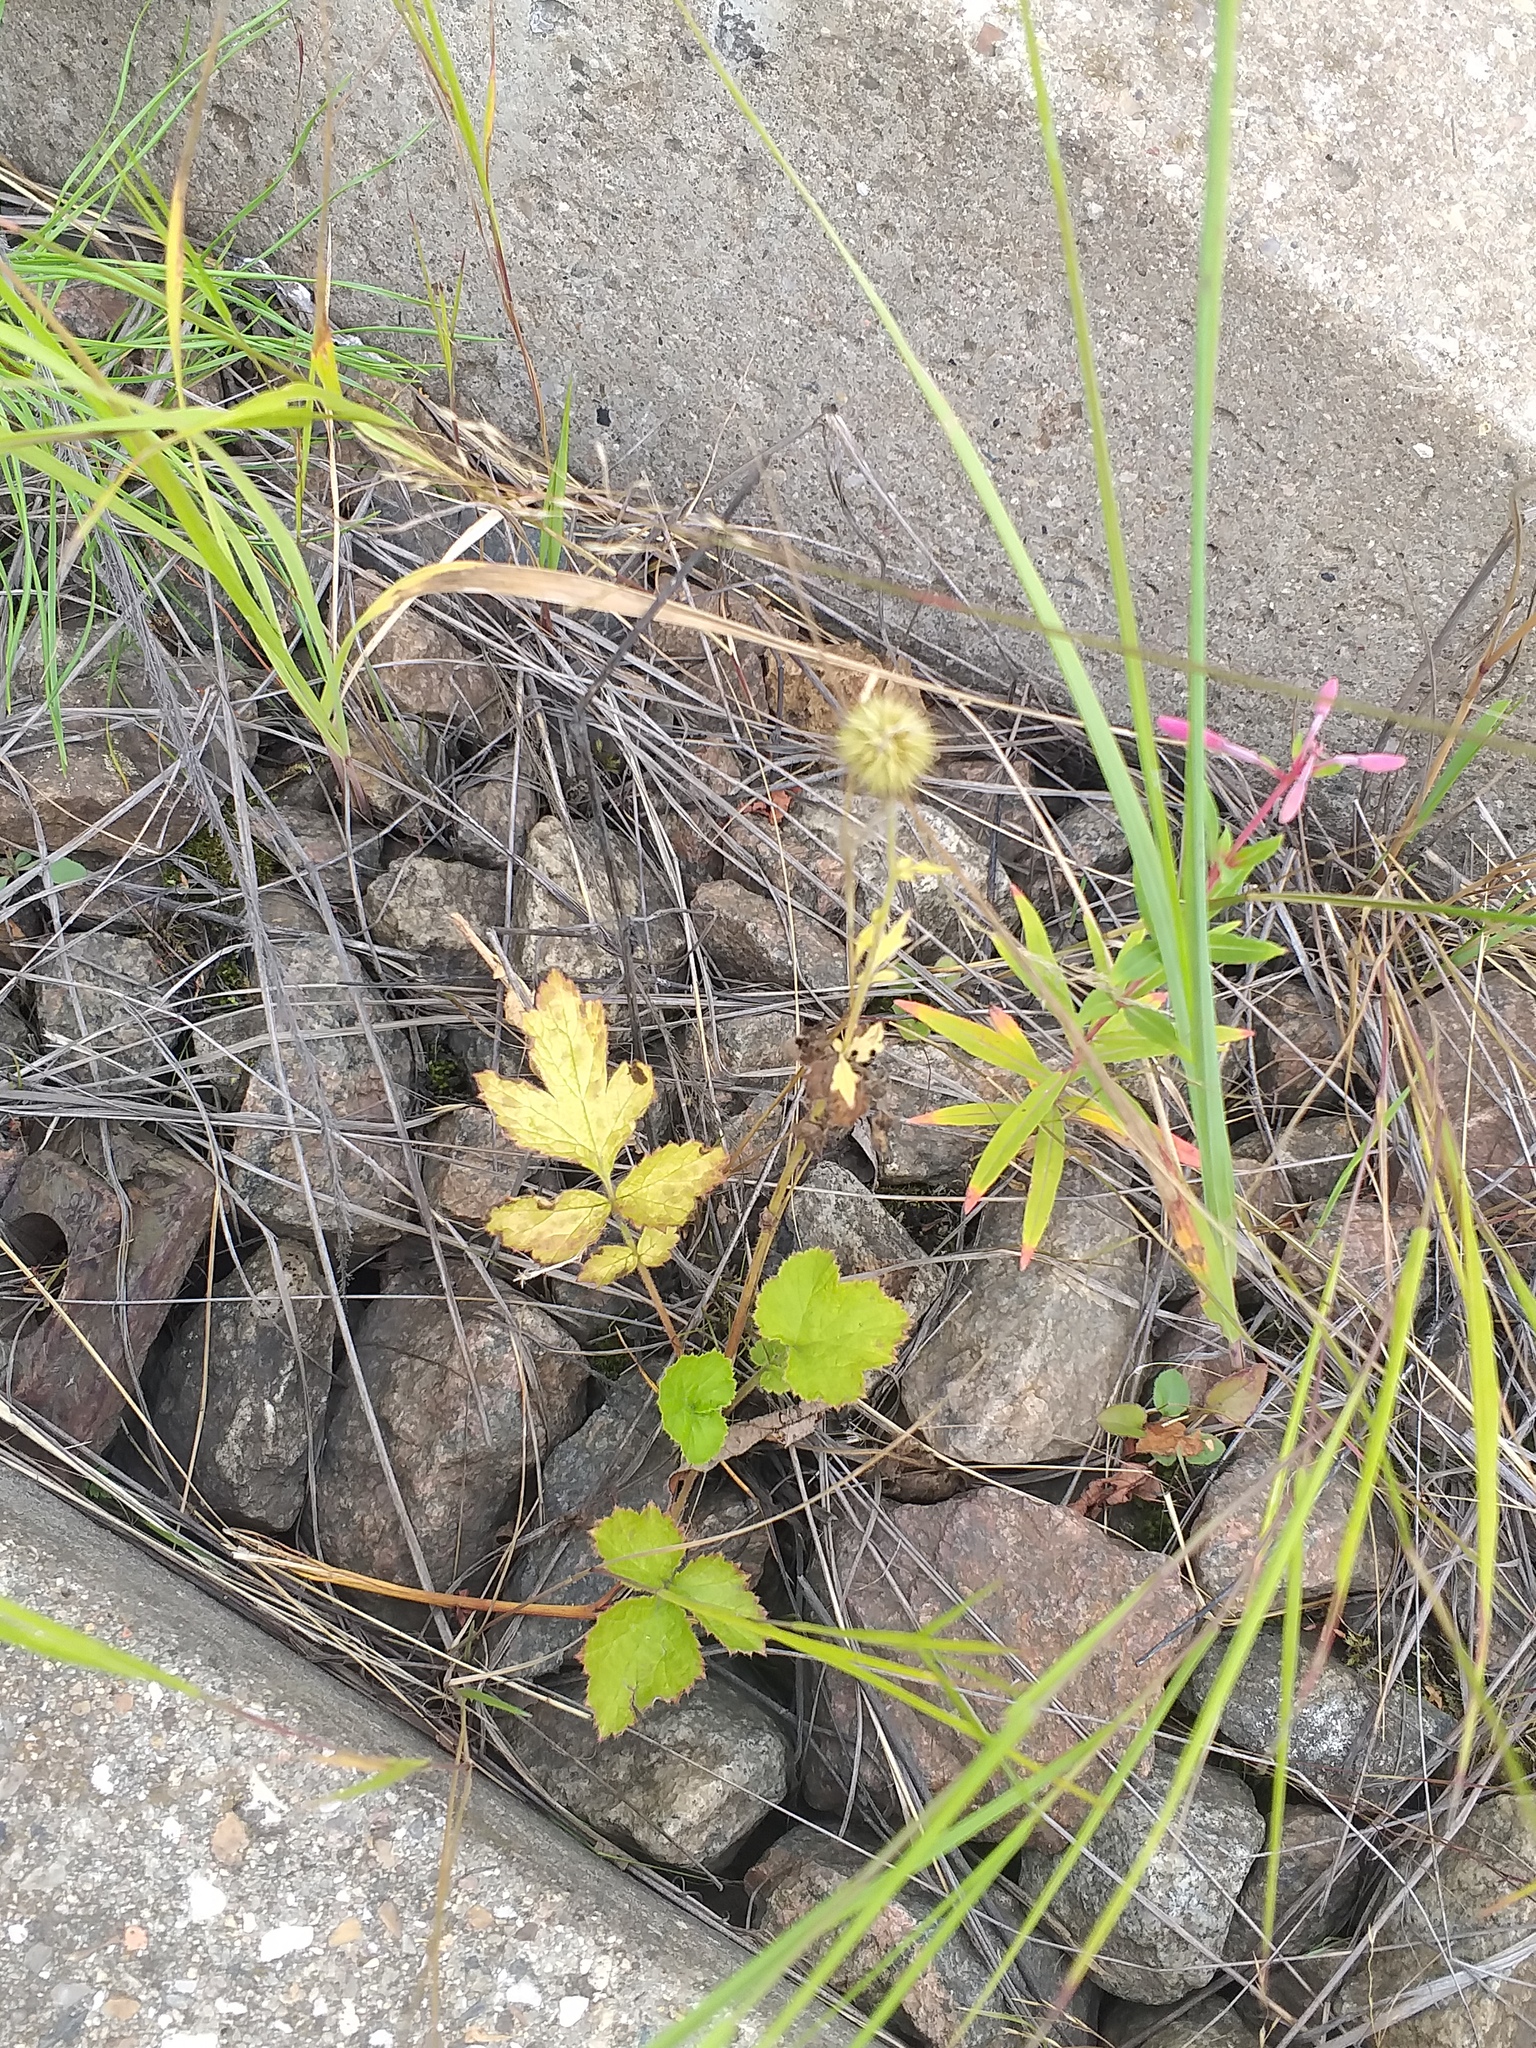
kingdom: Plantae
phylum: Tracheophyta
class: Magnoliopsida
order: Rosales
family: Rosaceae
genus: Geum
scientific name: Geum urbanum
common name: Wood avens
